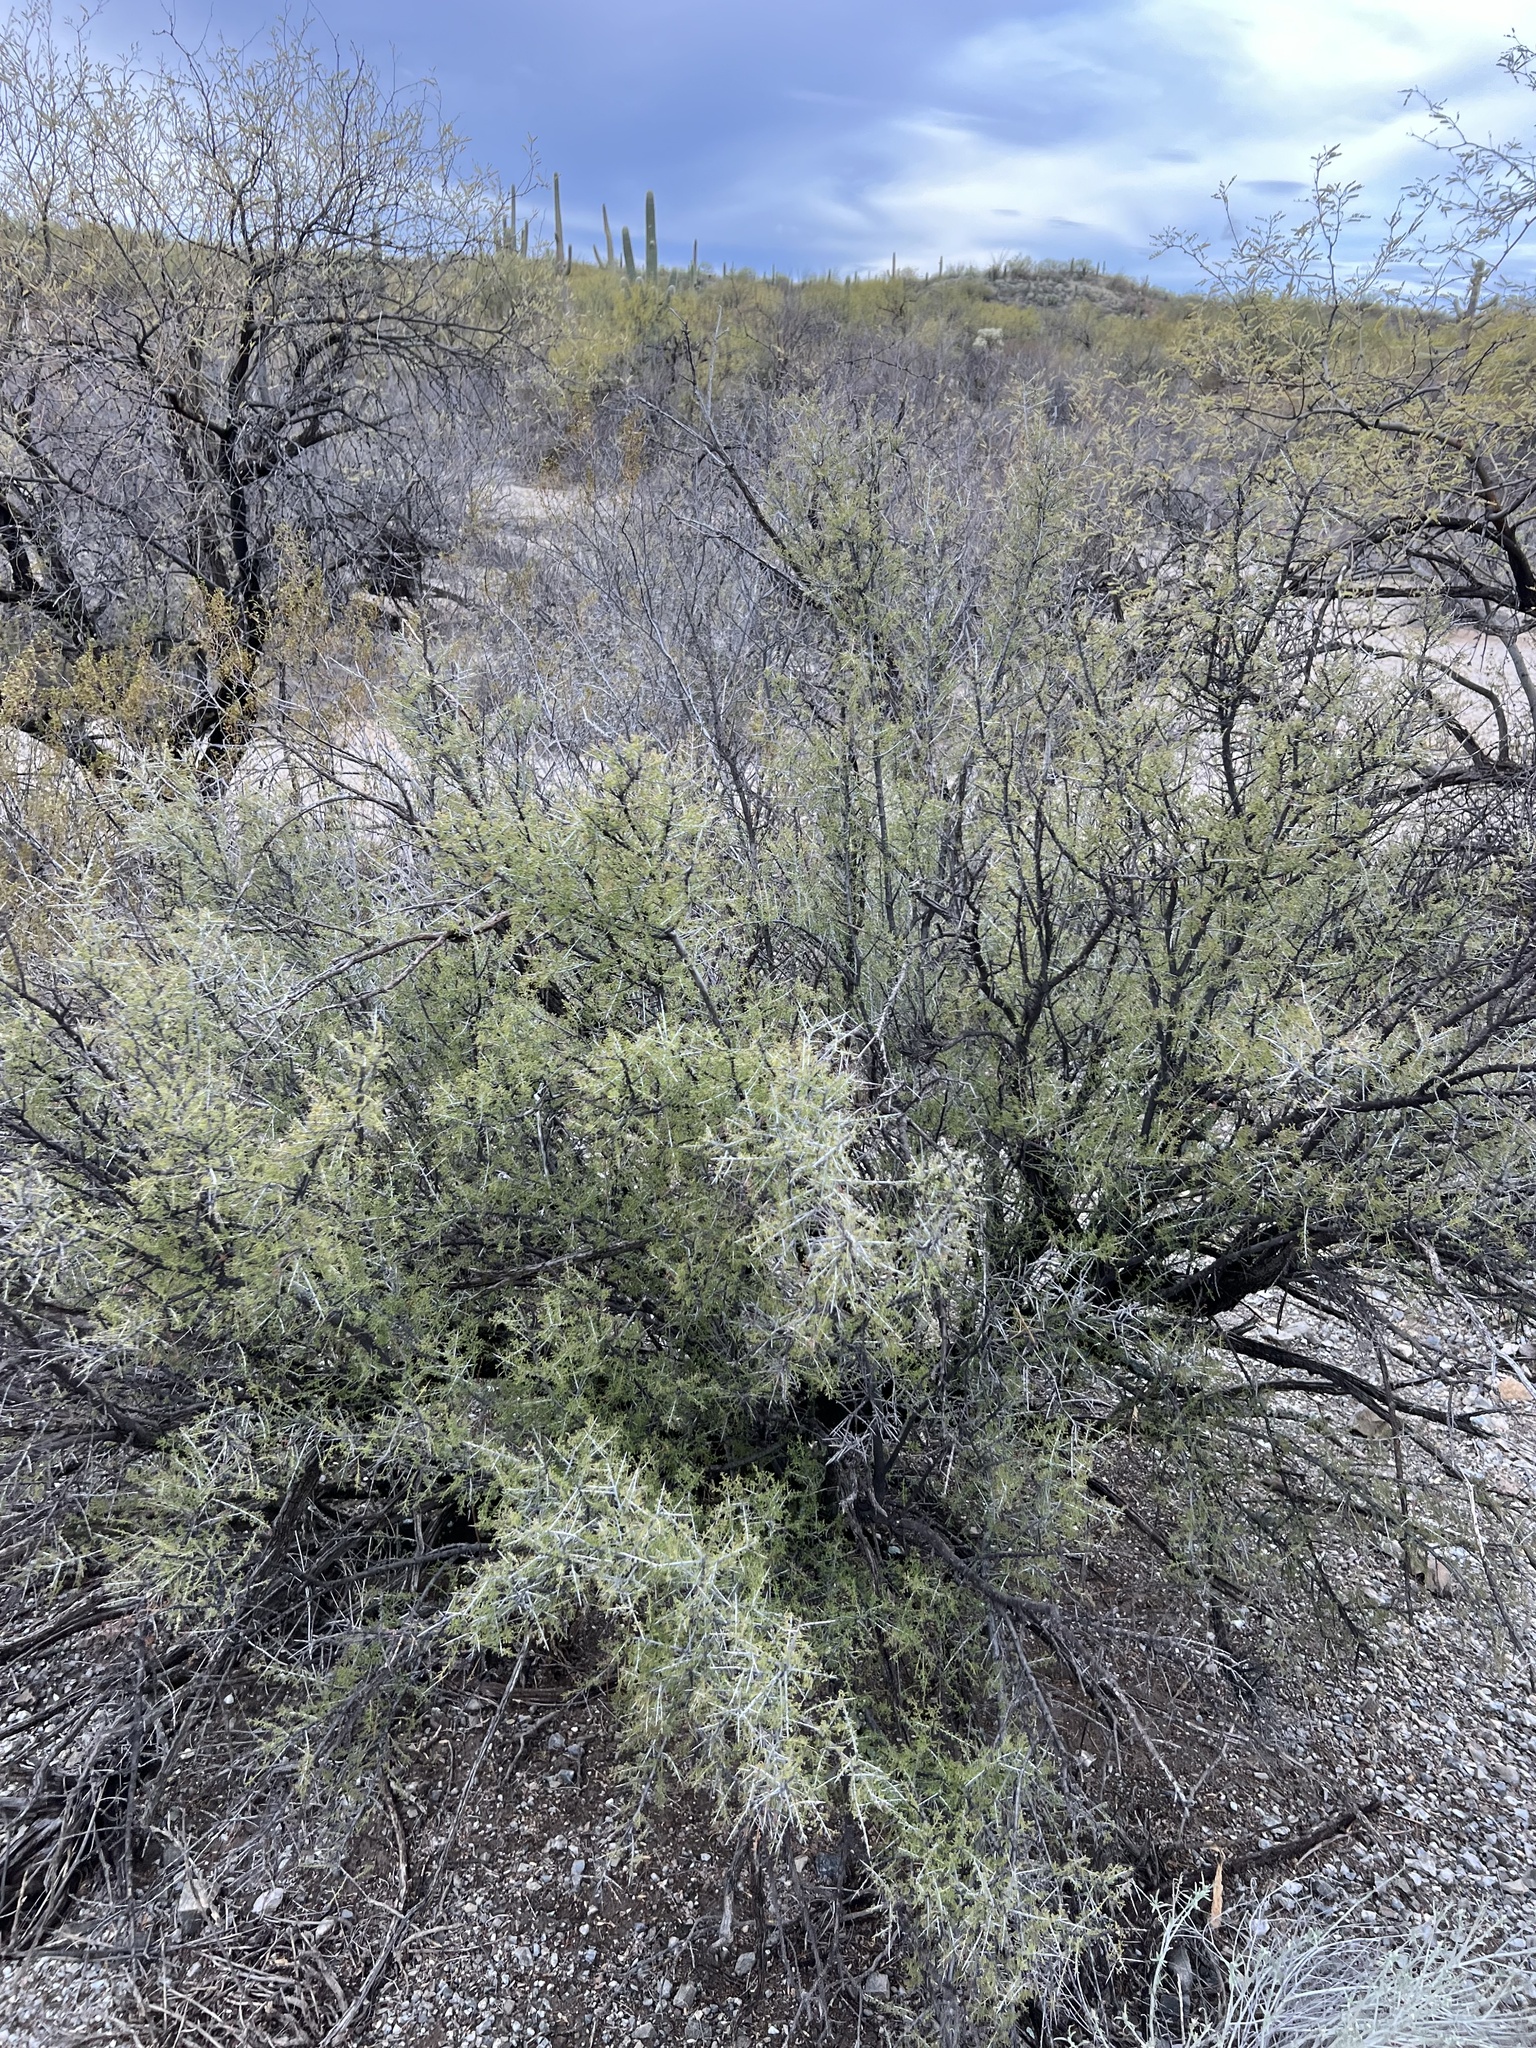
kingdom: Plantae
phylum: Tracheophyta
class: Magnoliopsida
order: Rosales
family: Rhamnaceae
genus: Condalia
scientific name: Condalia warnockii
